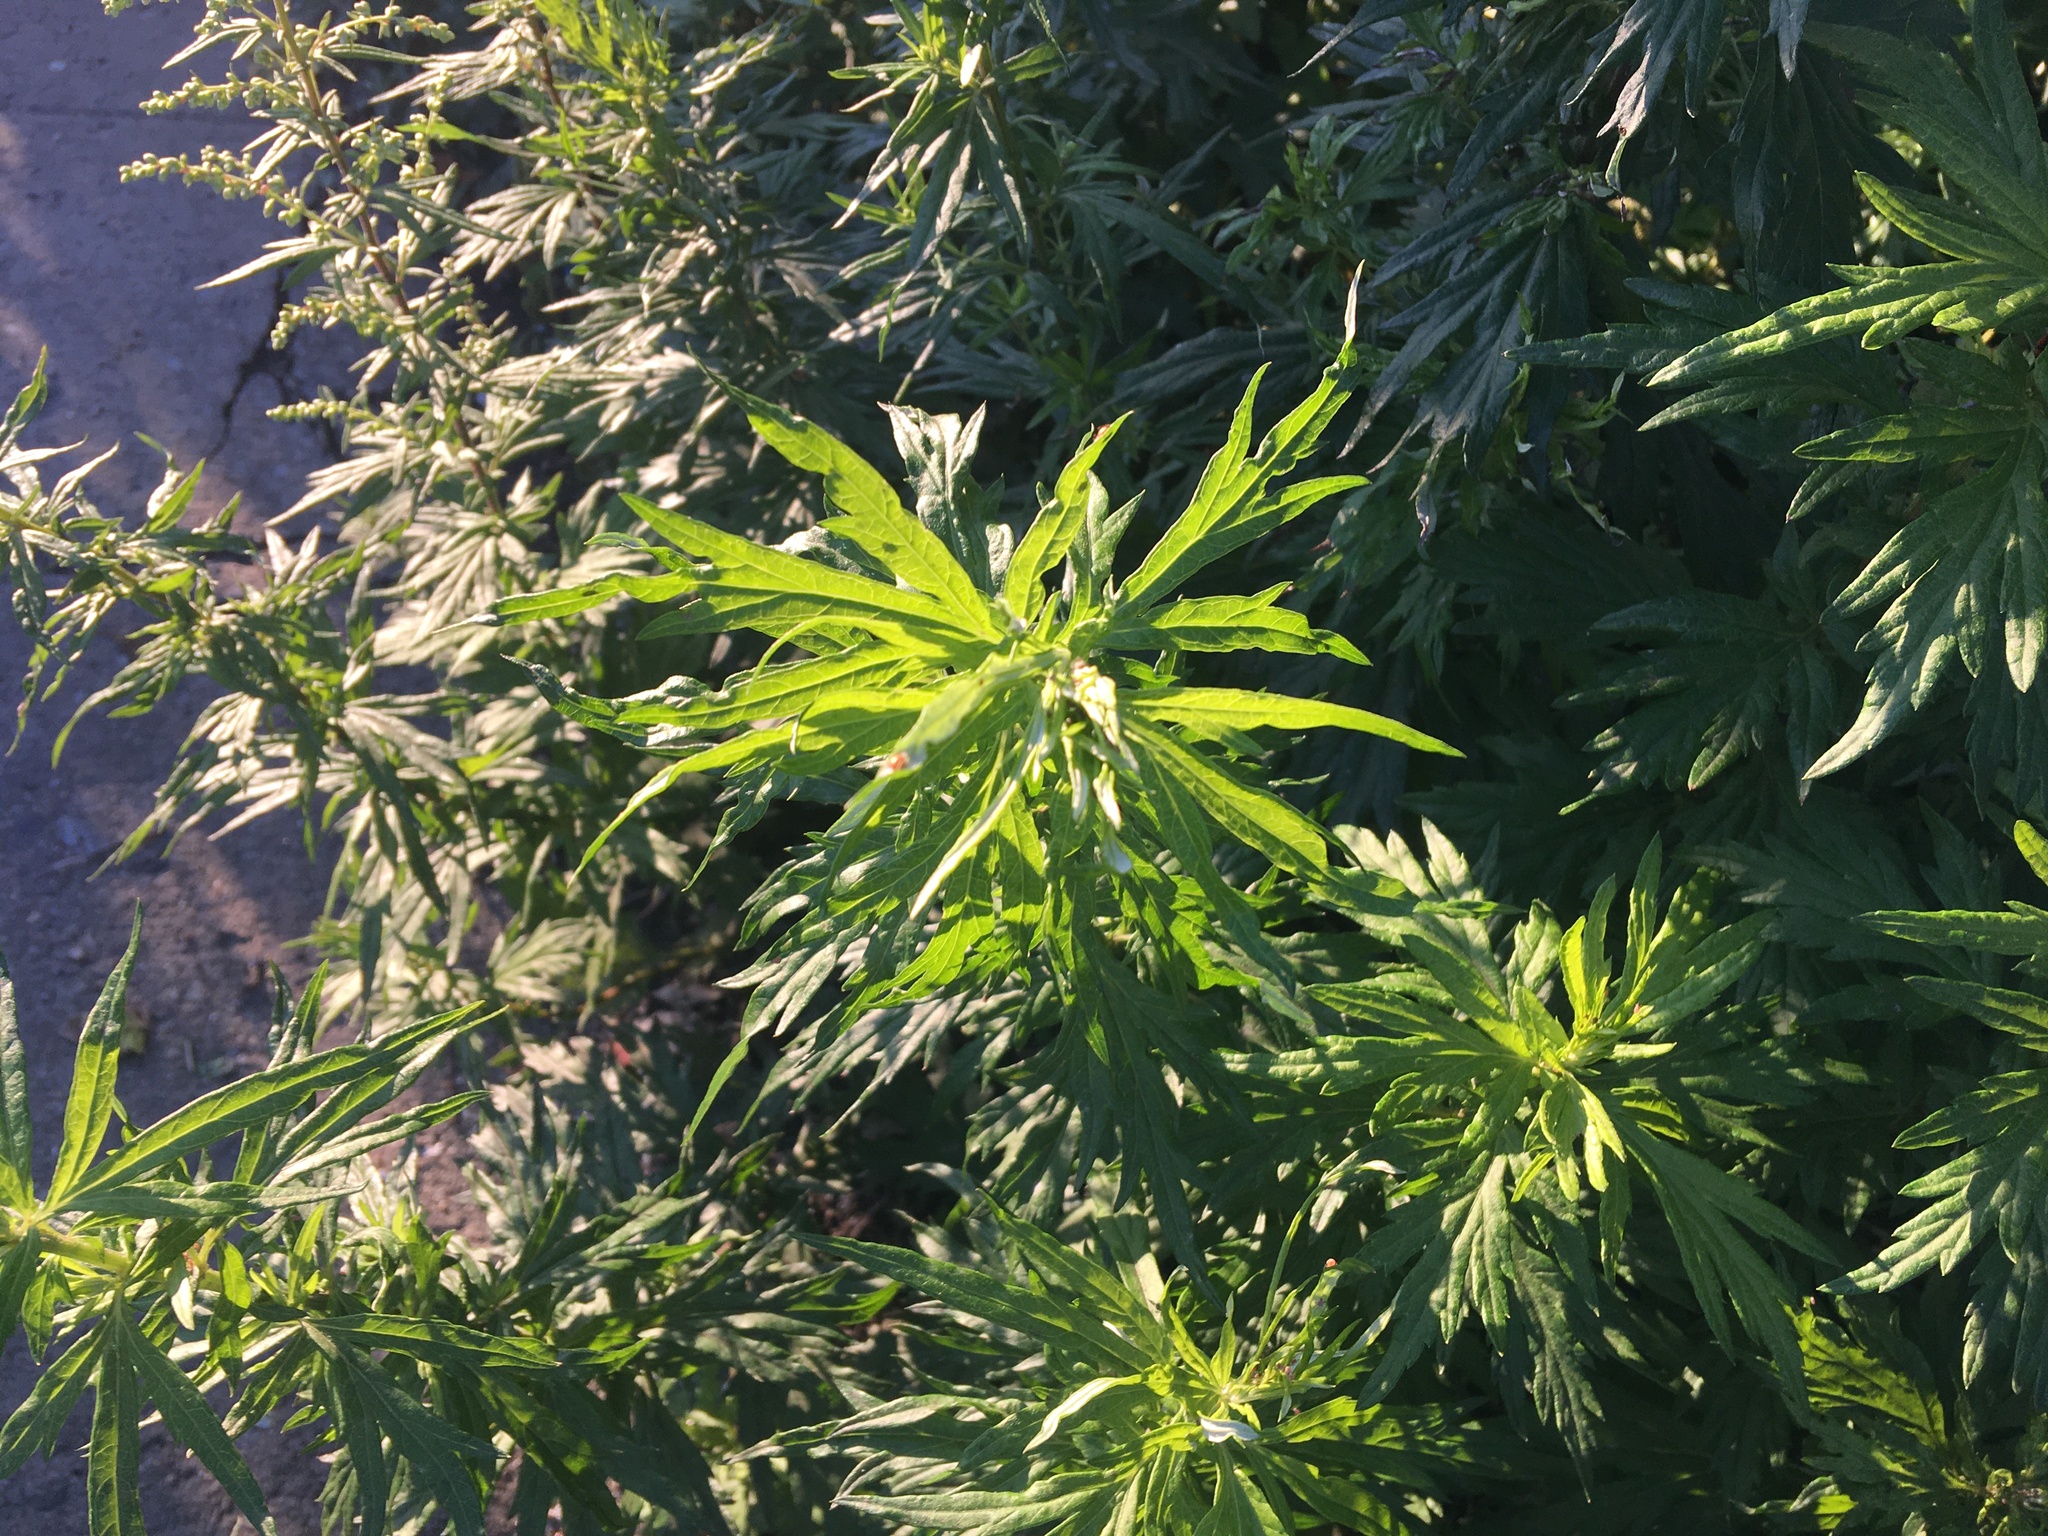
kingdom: Plantae
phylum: Tracheophyta
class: Magnoliopsida
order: Asterales
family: Asteraceae
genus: Artemisia
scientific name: Artemisia vulgaris
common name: Mugwort
